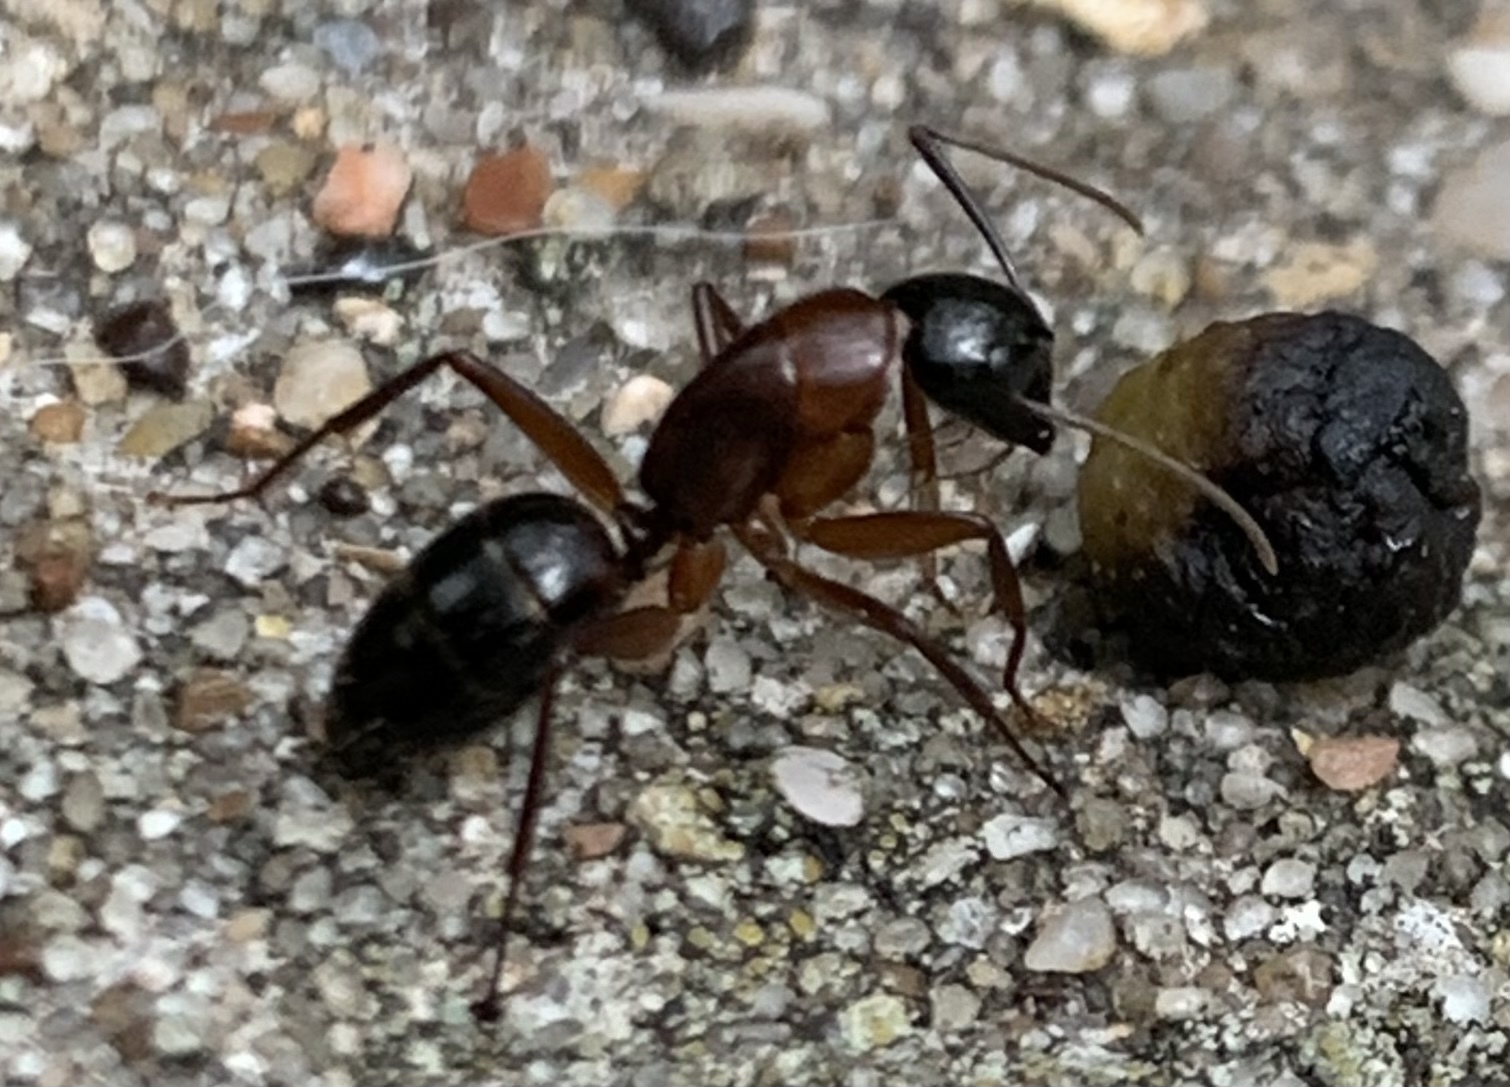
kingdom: Animalia
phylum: Arthropoda
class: Insecta
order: Hymenoptera
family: Formicidae
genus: Camponotus
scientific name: Camponotus texanus
